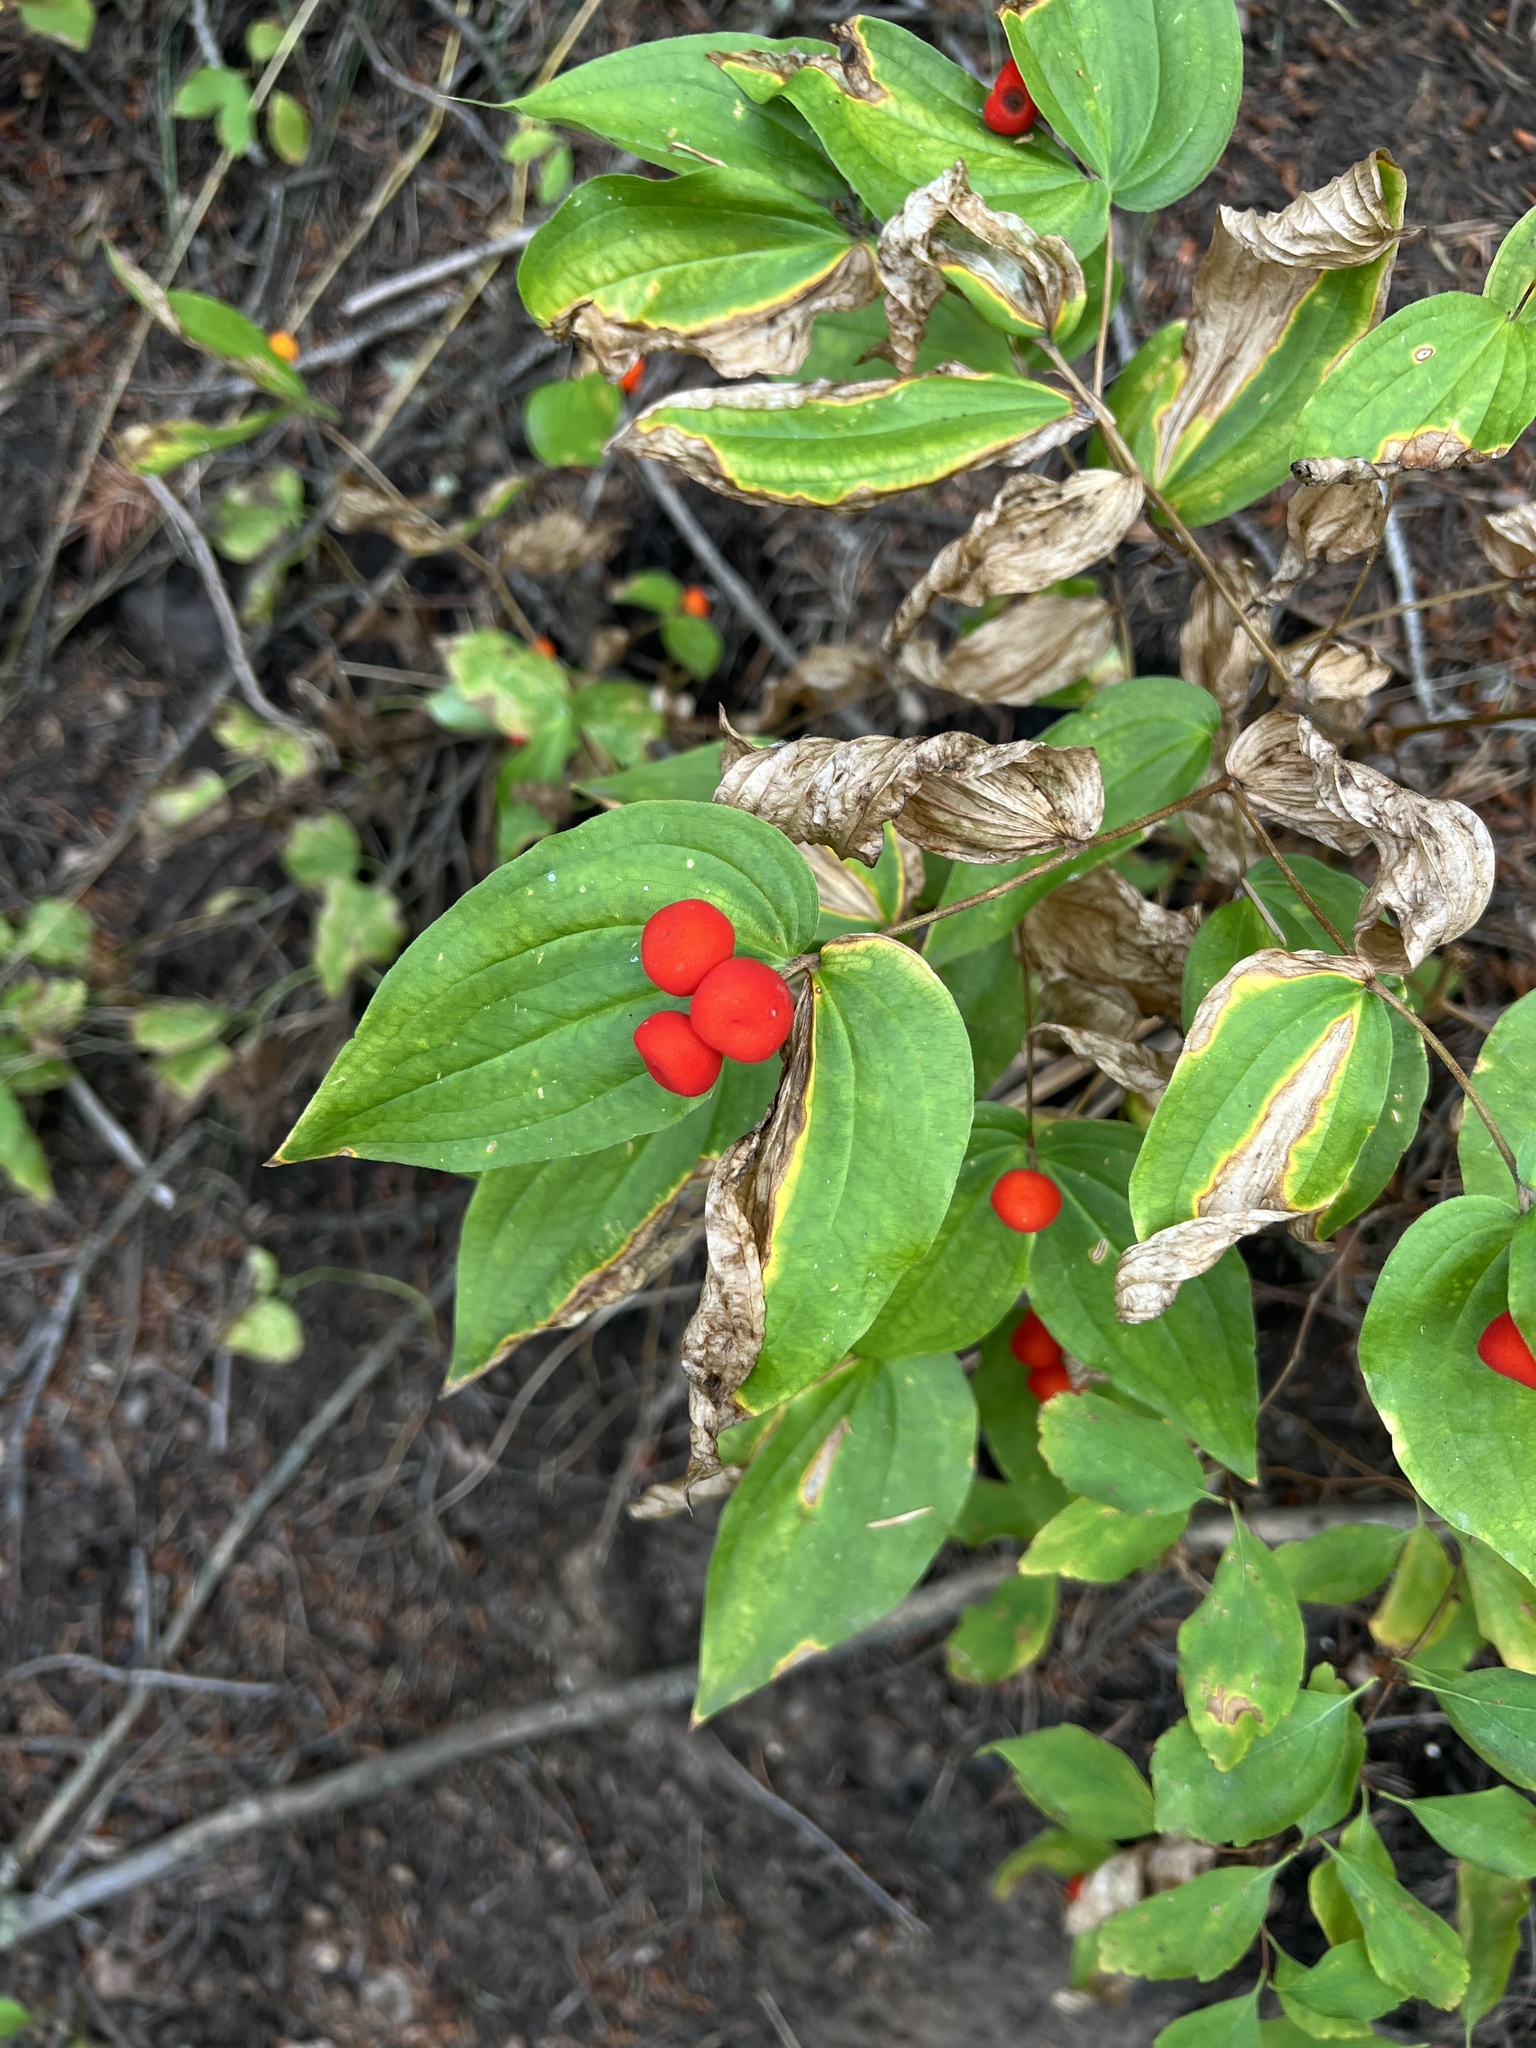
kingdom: Plantae
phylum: Tracheophyta
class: Liliopsida
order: Liliales
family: Liliaceae
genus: Prosartes
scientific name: Prosartes trachycarpa
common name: Rough-fruit fairy-bells
